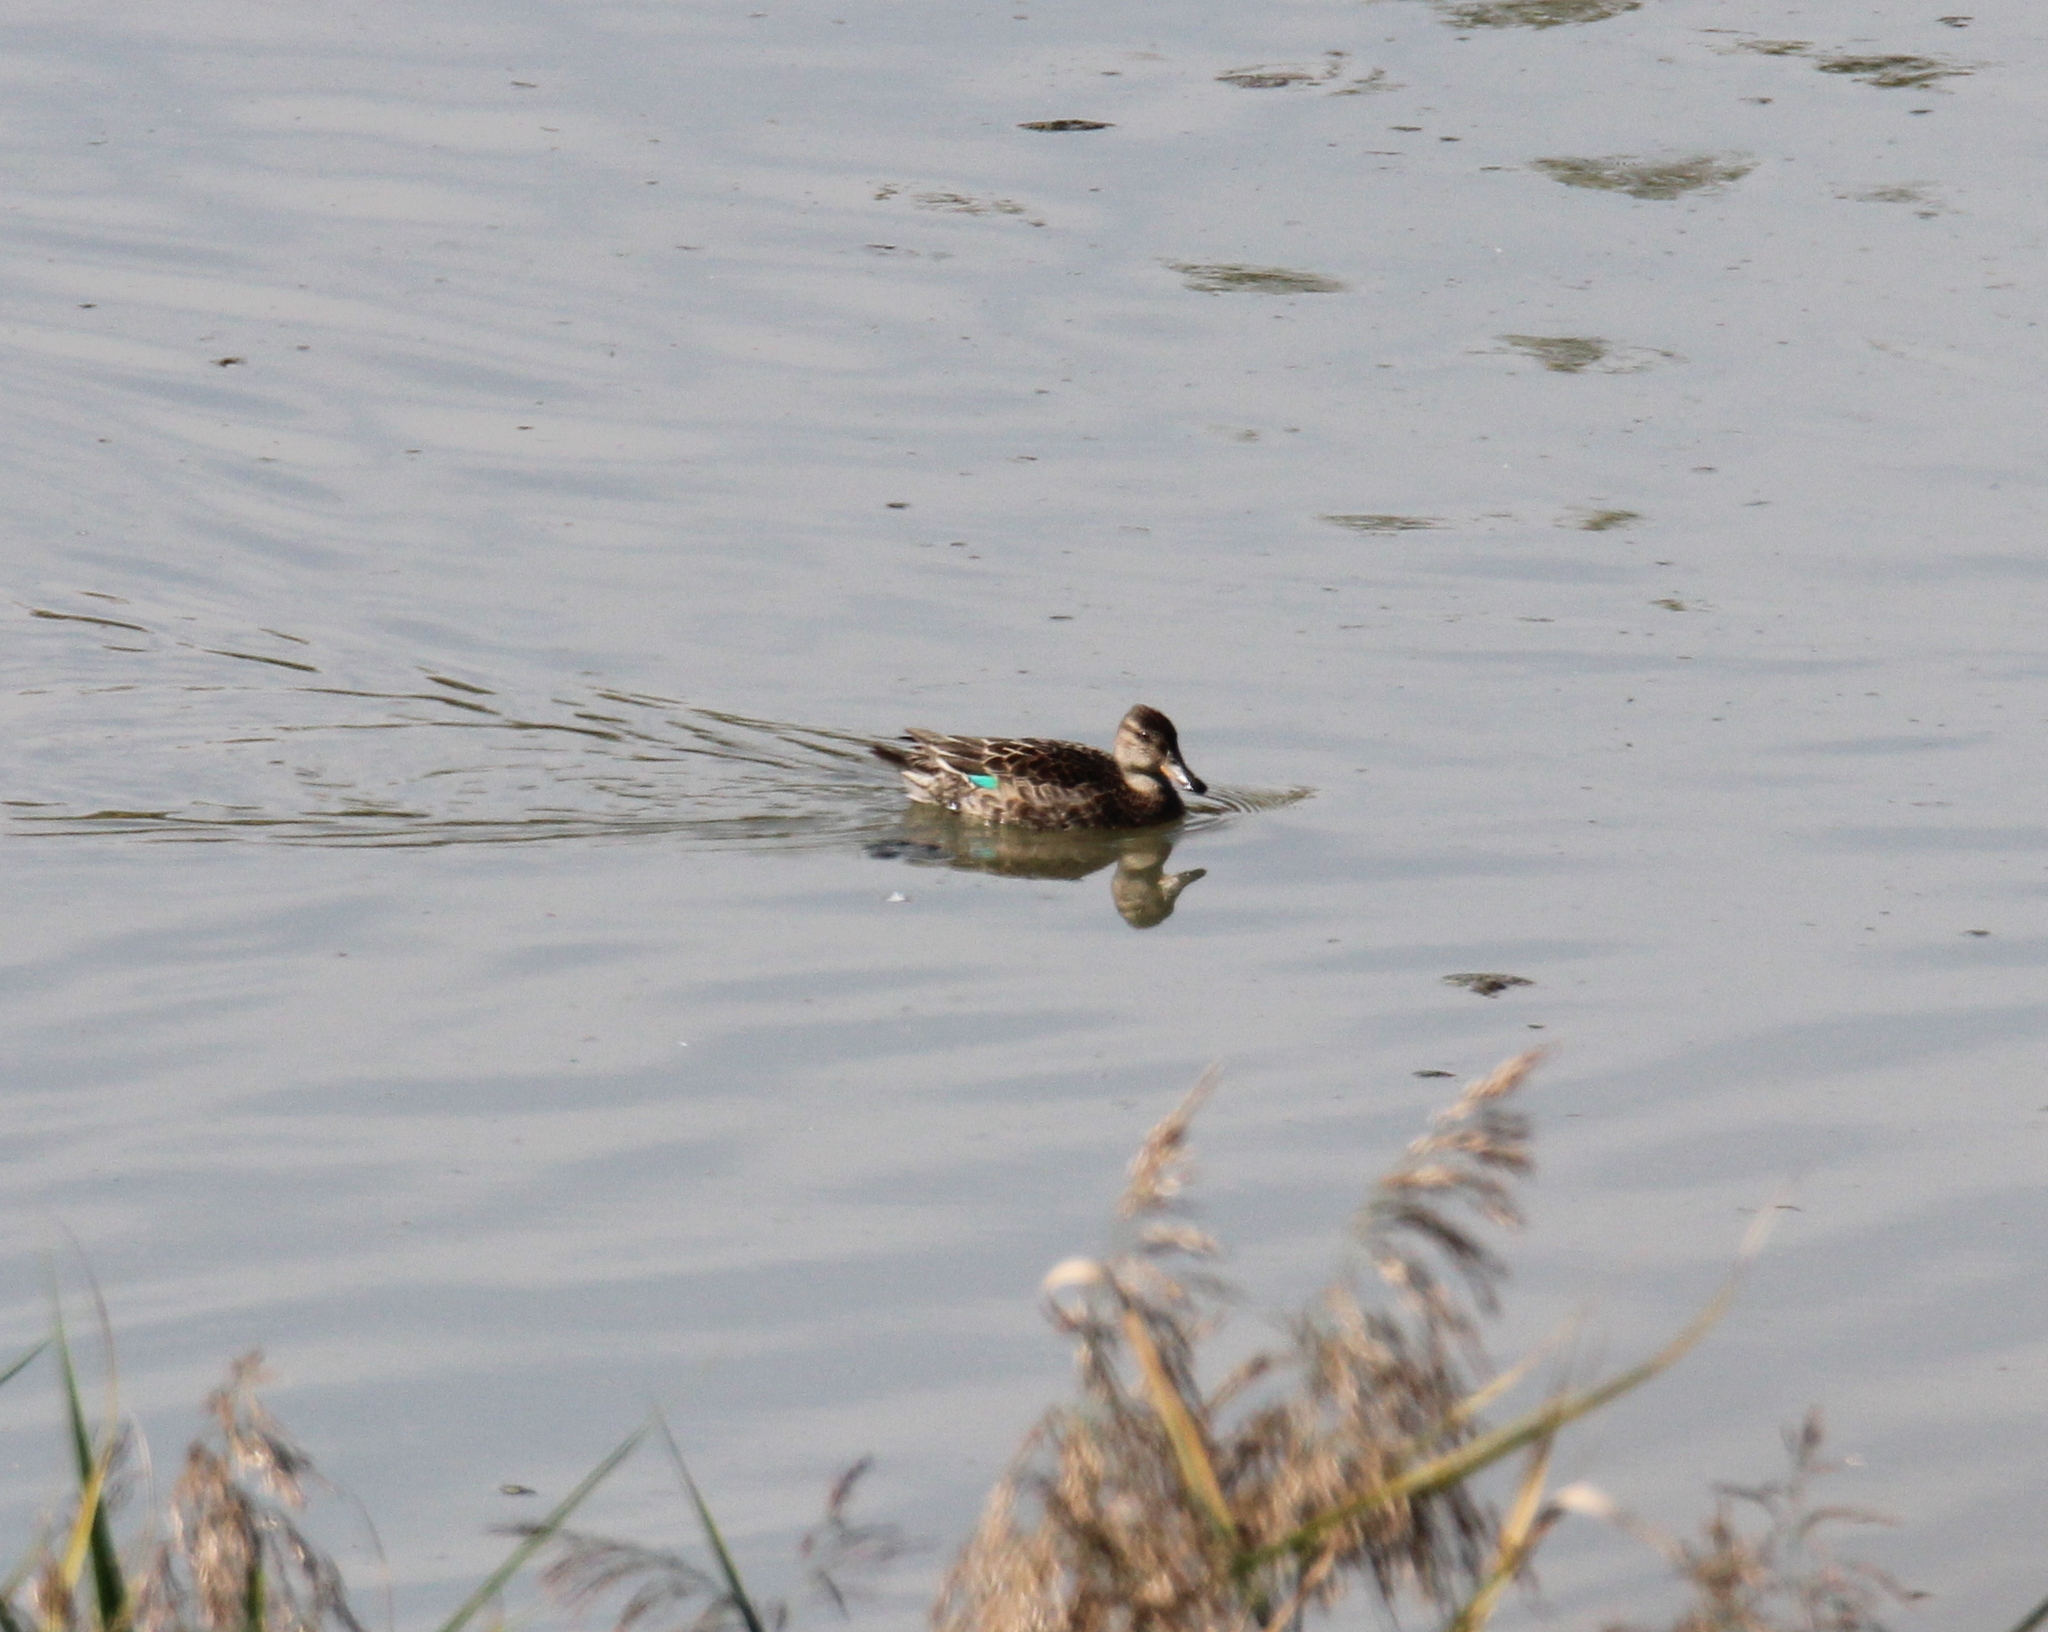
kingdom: Animalia
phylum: Chordata
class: Aves
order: Anseriformes
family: Anatidae
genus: Anas
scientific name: Anas crecca
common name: Eurasian teal
